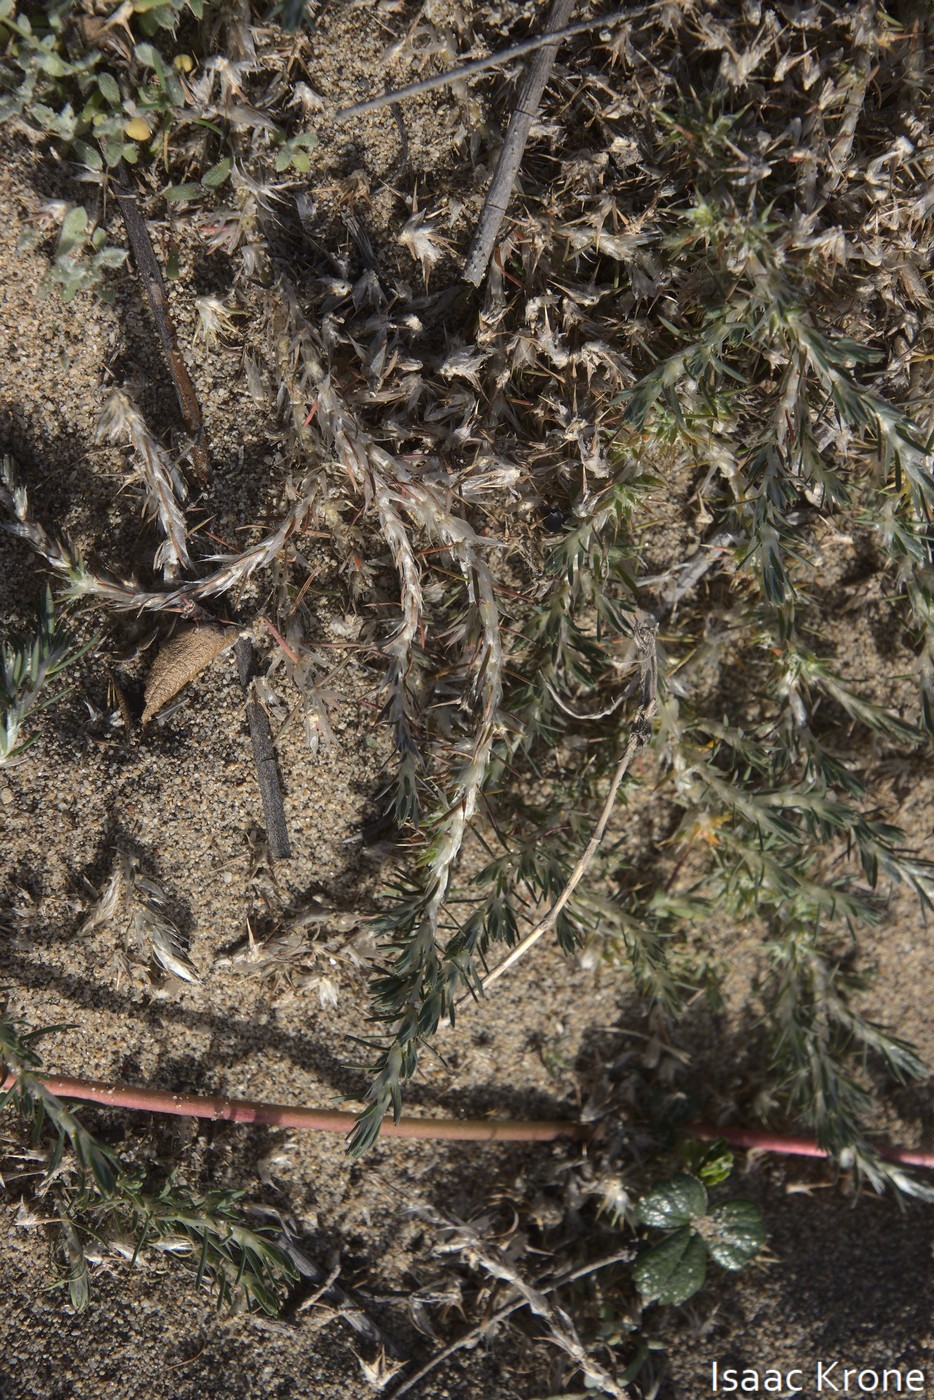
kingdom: Plantae
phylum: Tracheophyta
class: Magnoliopsida
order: Caryophyllales
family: Caryophyllaceae
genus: Cardionema
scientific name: Cardionema ramosissima
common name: Sandcarpet
